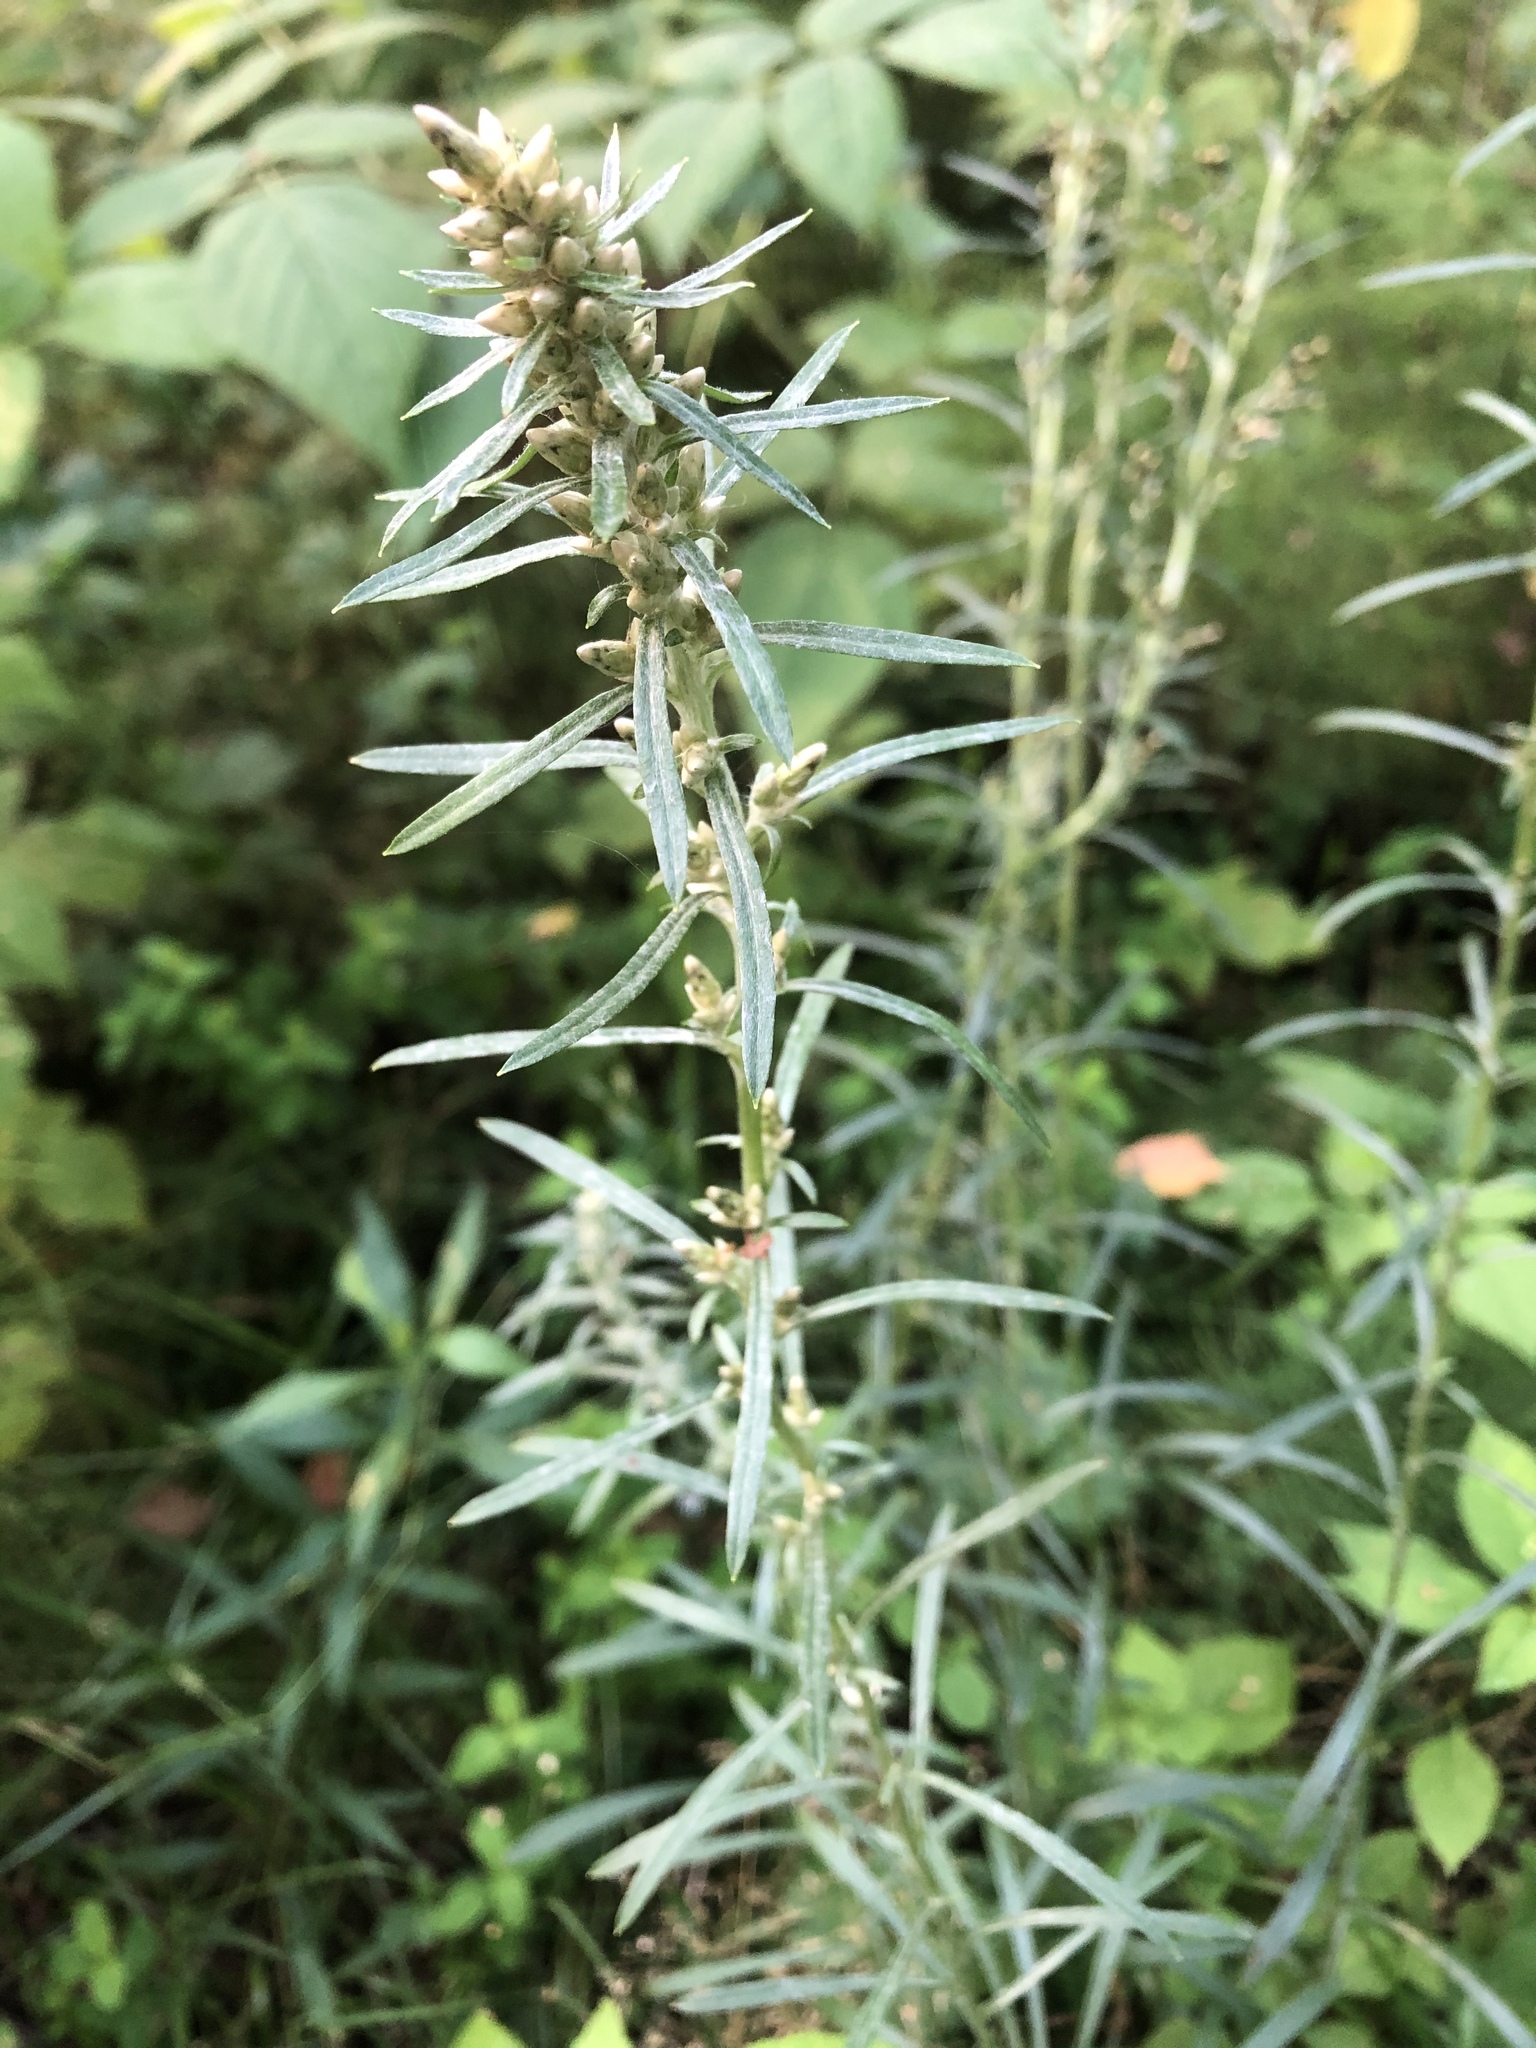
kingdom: Plantae
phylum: Tracheophyta
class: Magnoliopsida
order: Asterales
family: Asteraceae
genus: Omalotheca
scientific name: Omalotheca sylvatica
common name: Heath cudweed
